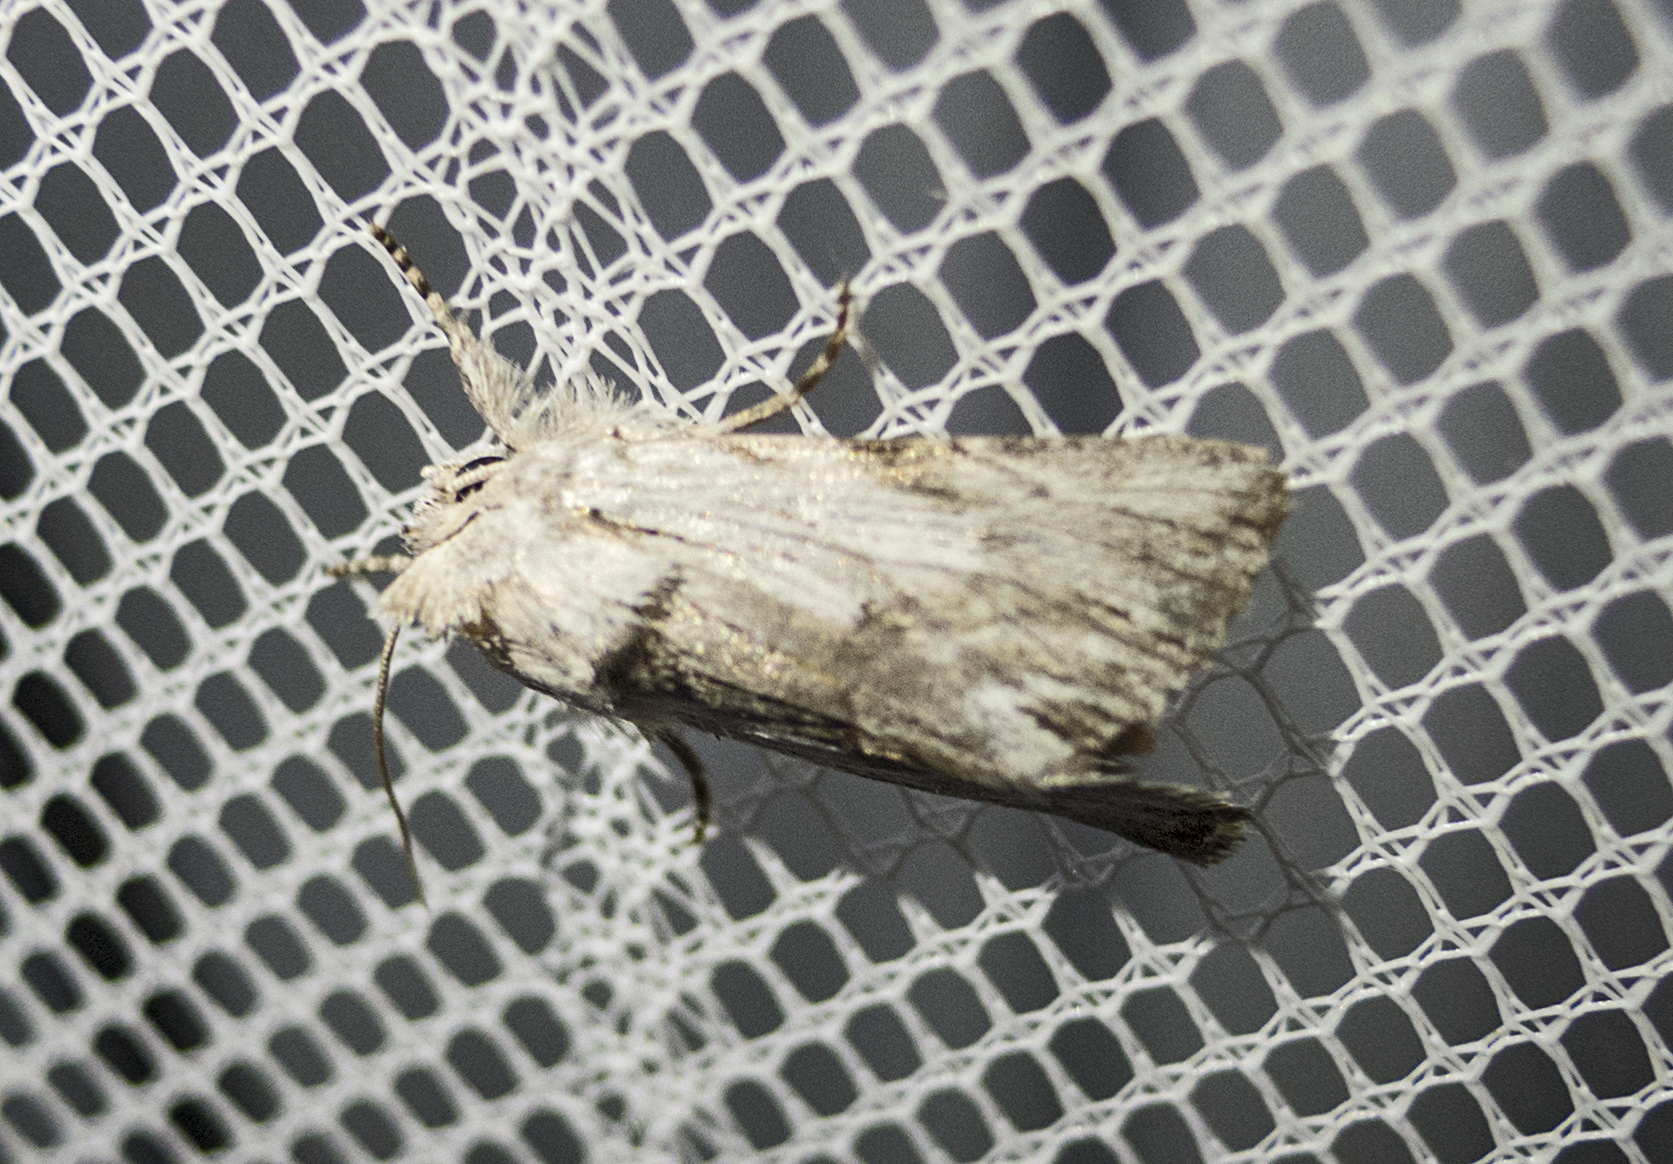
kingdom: Animalia
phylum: Arthropoda
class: Insecta
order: Lepidoptera
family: Noctuidae
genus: Calophasia
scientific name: Calophasia platyptera
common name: Antirrhinum brocade
